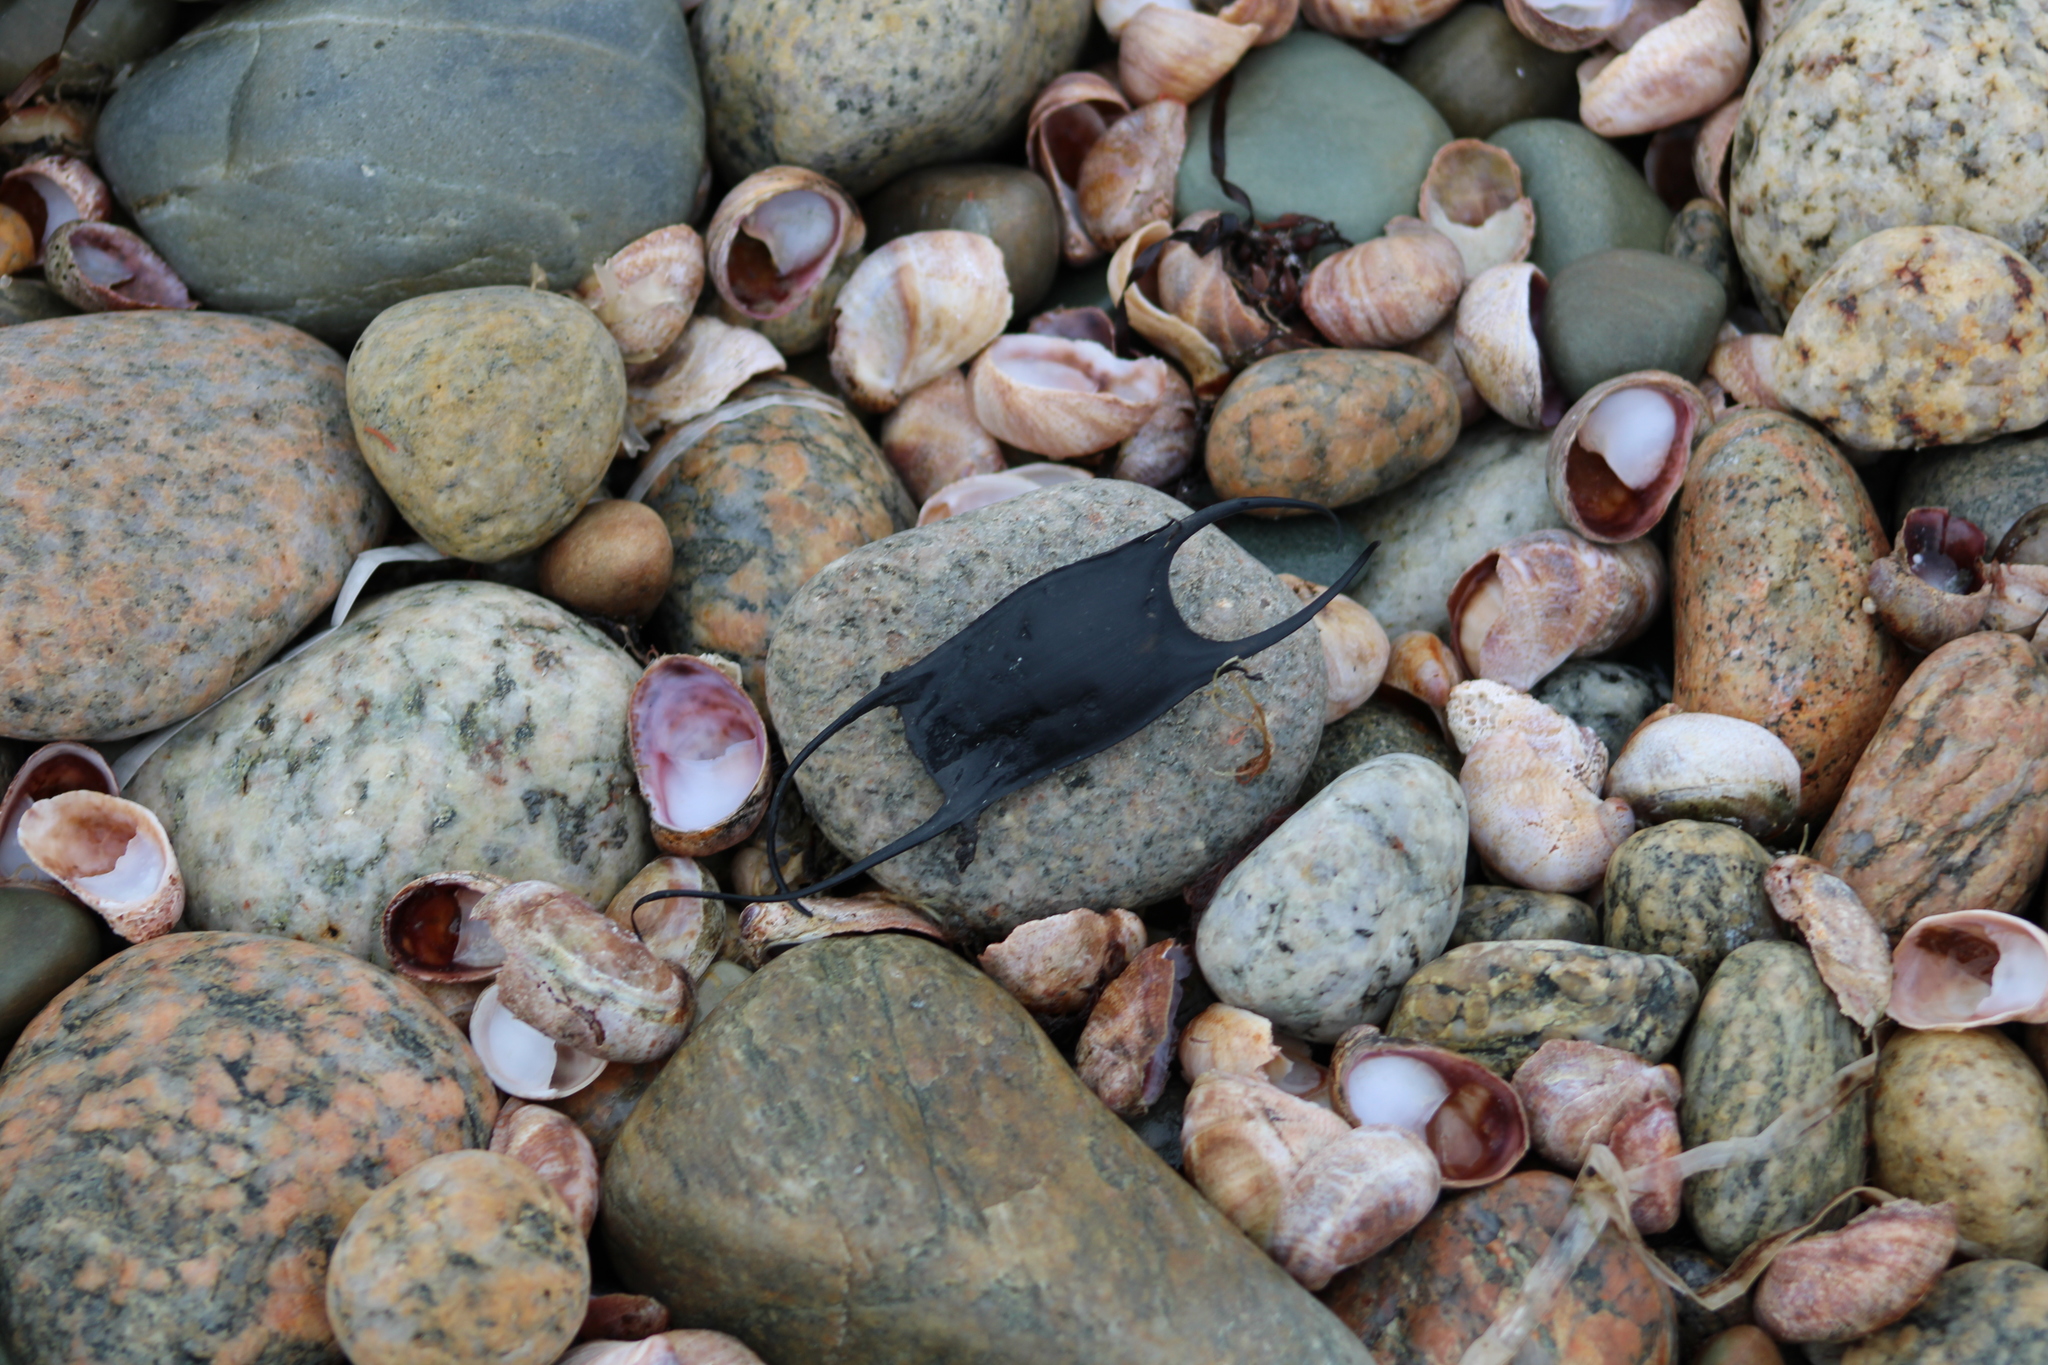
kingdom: Animalia
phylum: Chordata
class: Elasmobranchii
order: Rajiformes
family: Rajidae
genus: Leucoraja
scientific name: Leucoraja erinacea
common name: Little skate
